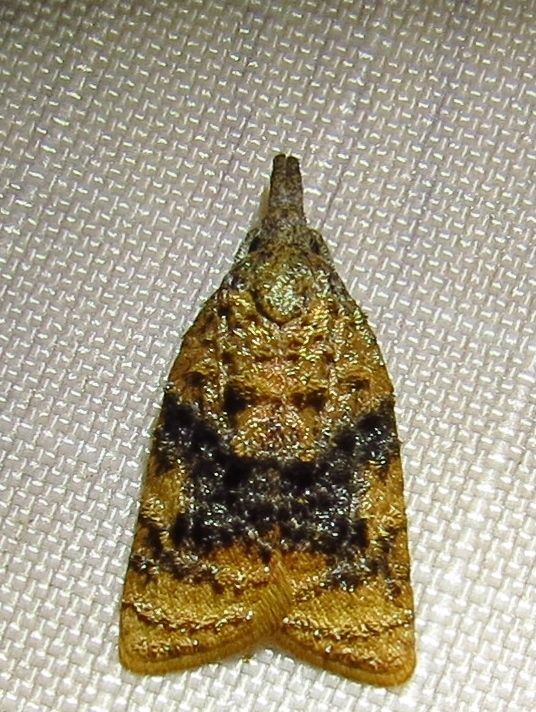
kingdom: Animalia
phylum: Arthropoda
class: Insecta
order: Lepidoptera
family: Tortricidae
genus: Platynota
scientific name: Platynota flavedana
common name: Black-shaded platynota moth
